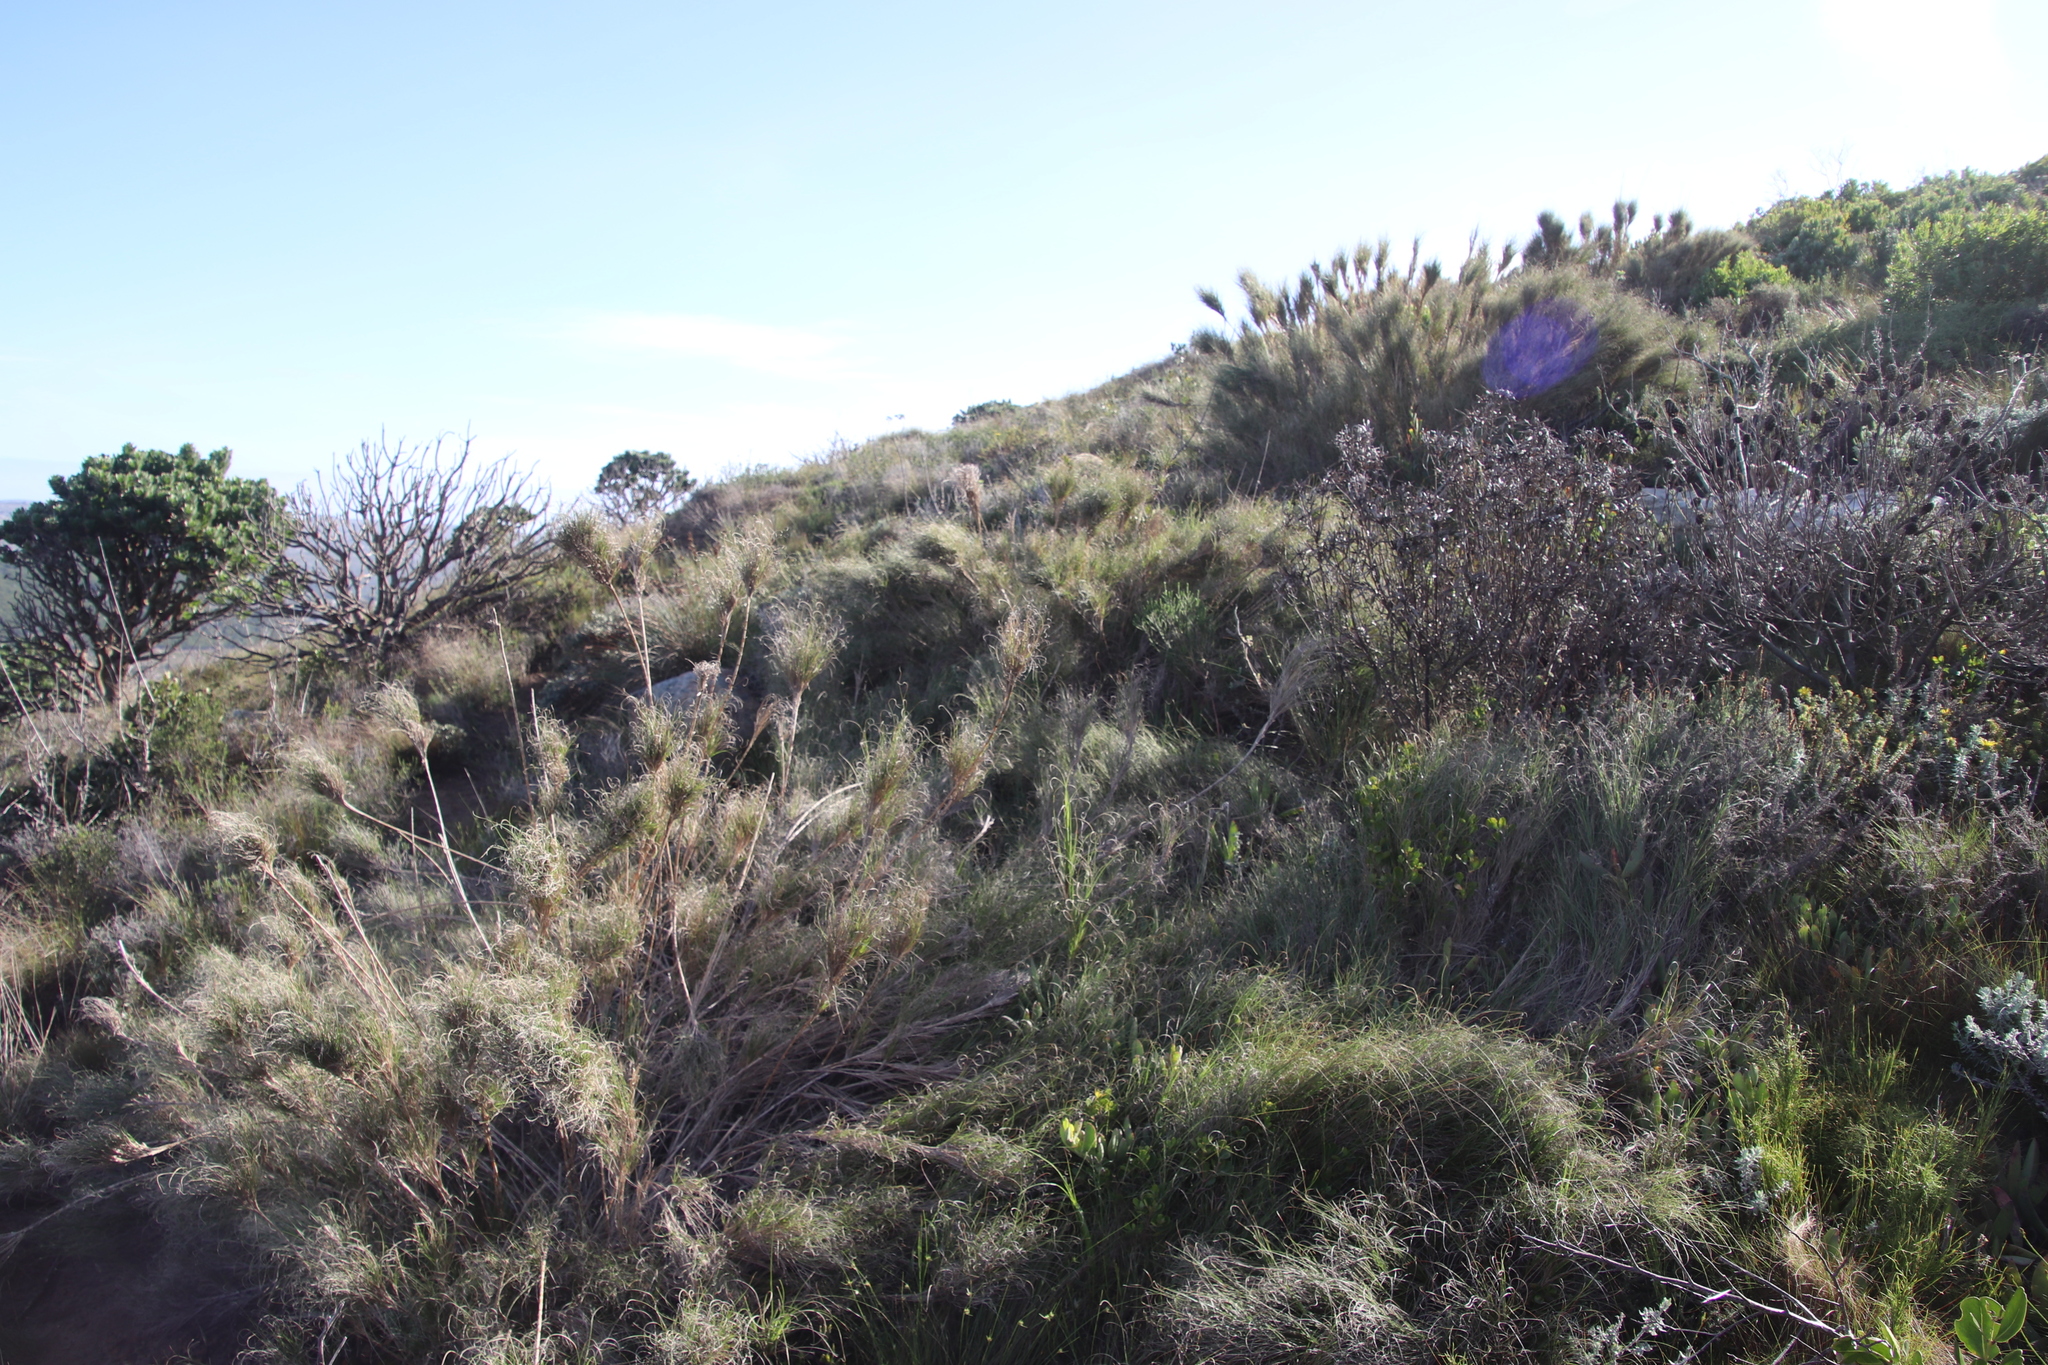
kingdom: Plantae
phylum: Tracheophyta
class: Liliopsida
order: Poales
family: Poaceae
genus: Pseudopentameris
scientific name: Pseudopentameris macrantha
